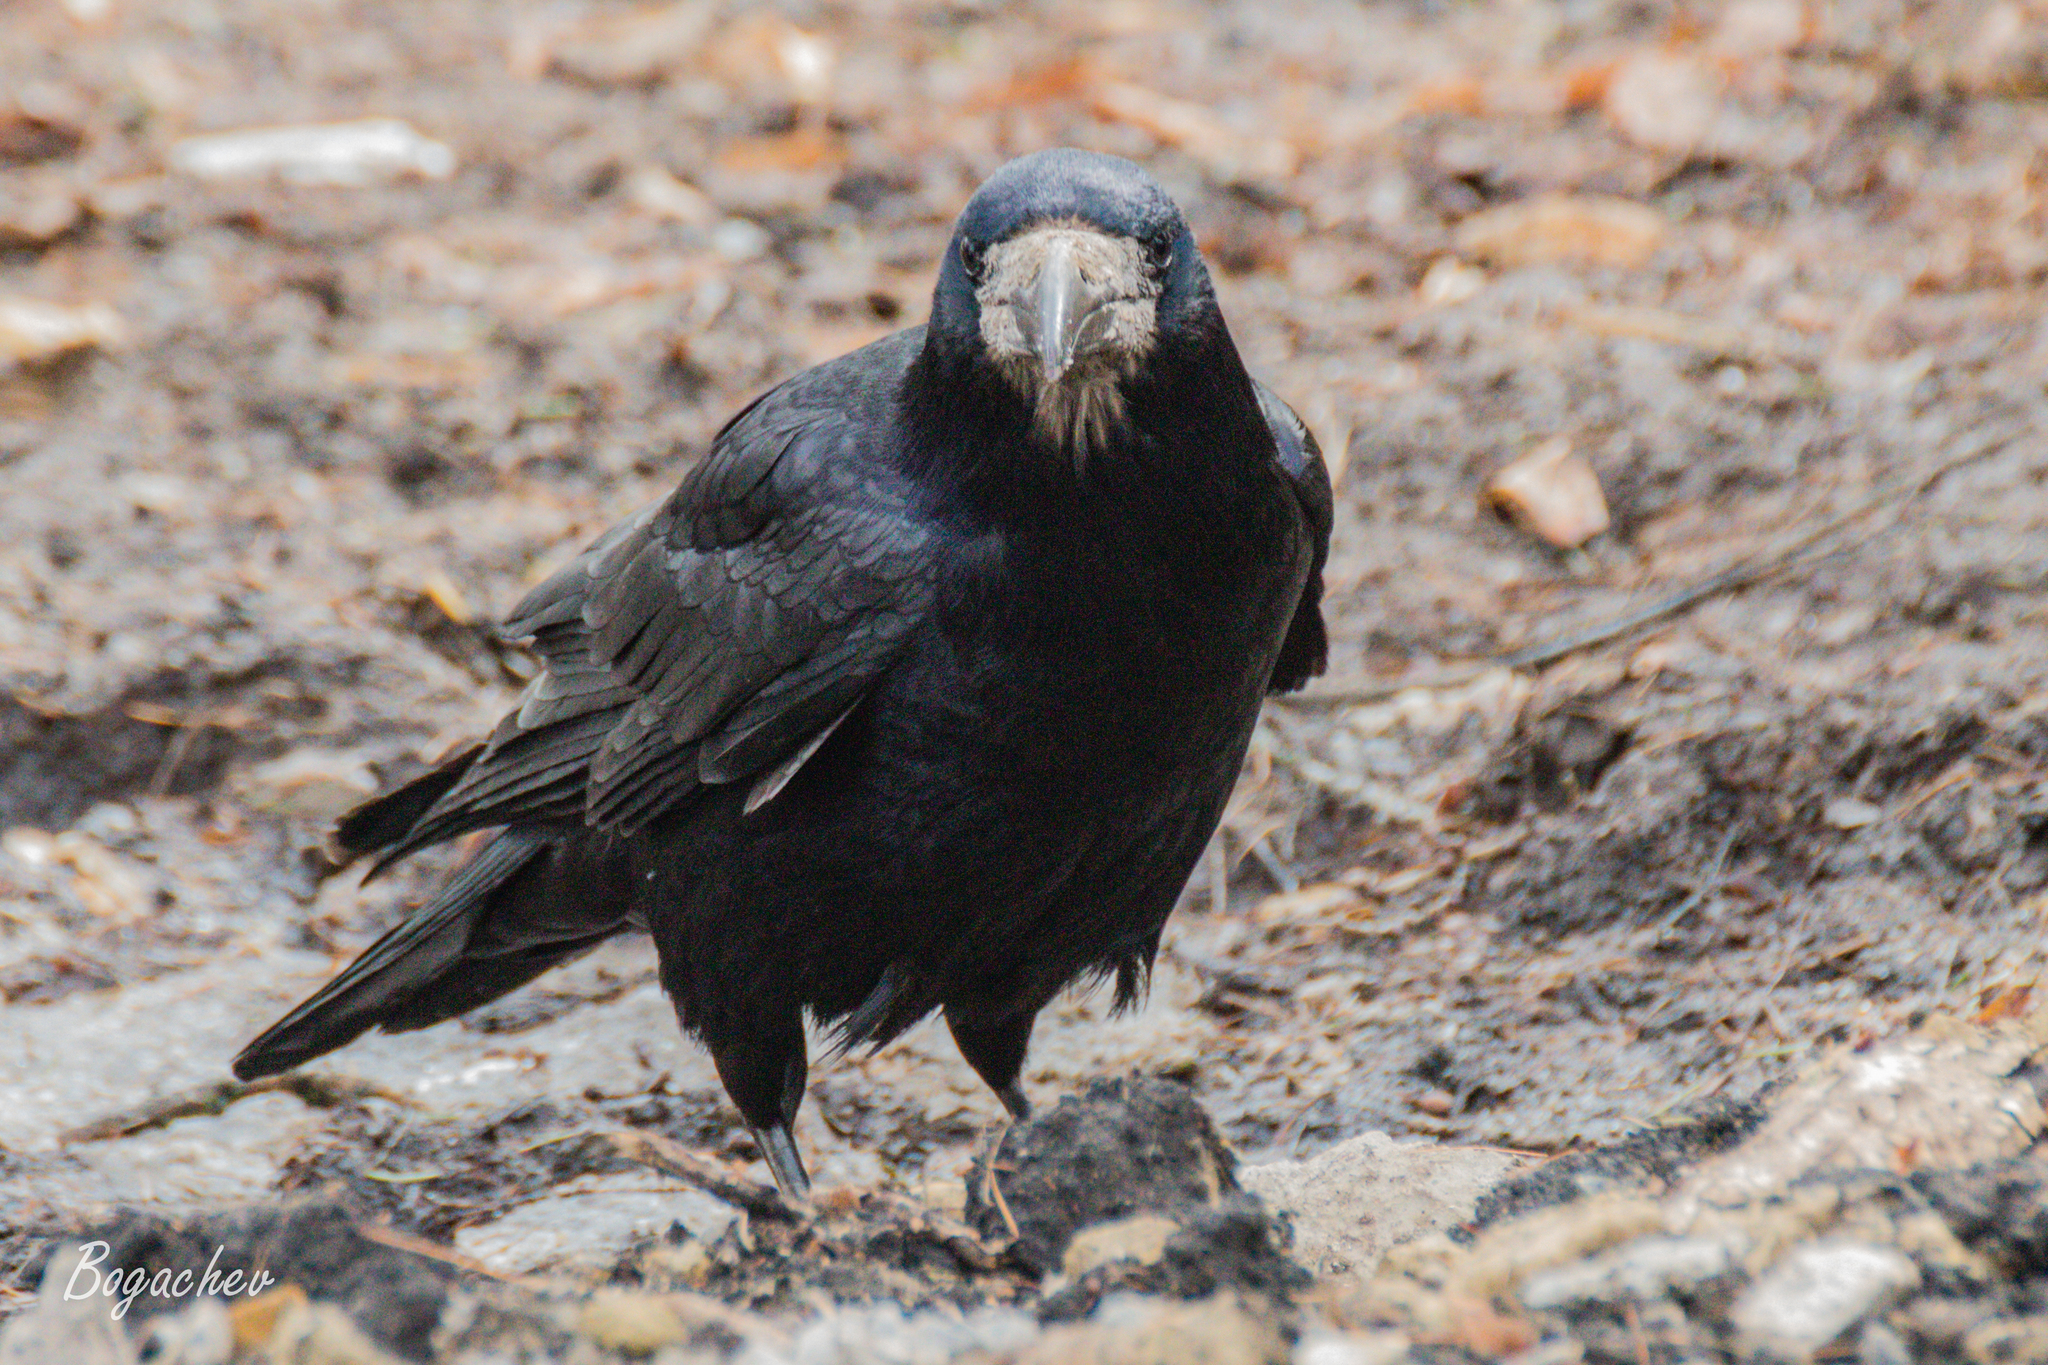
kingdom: Animalia
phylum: Chordata
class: Aves
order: Passeriformes
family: Corvidae
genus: Corvus
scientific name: Corvus frugilegus
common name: Rook
